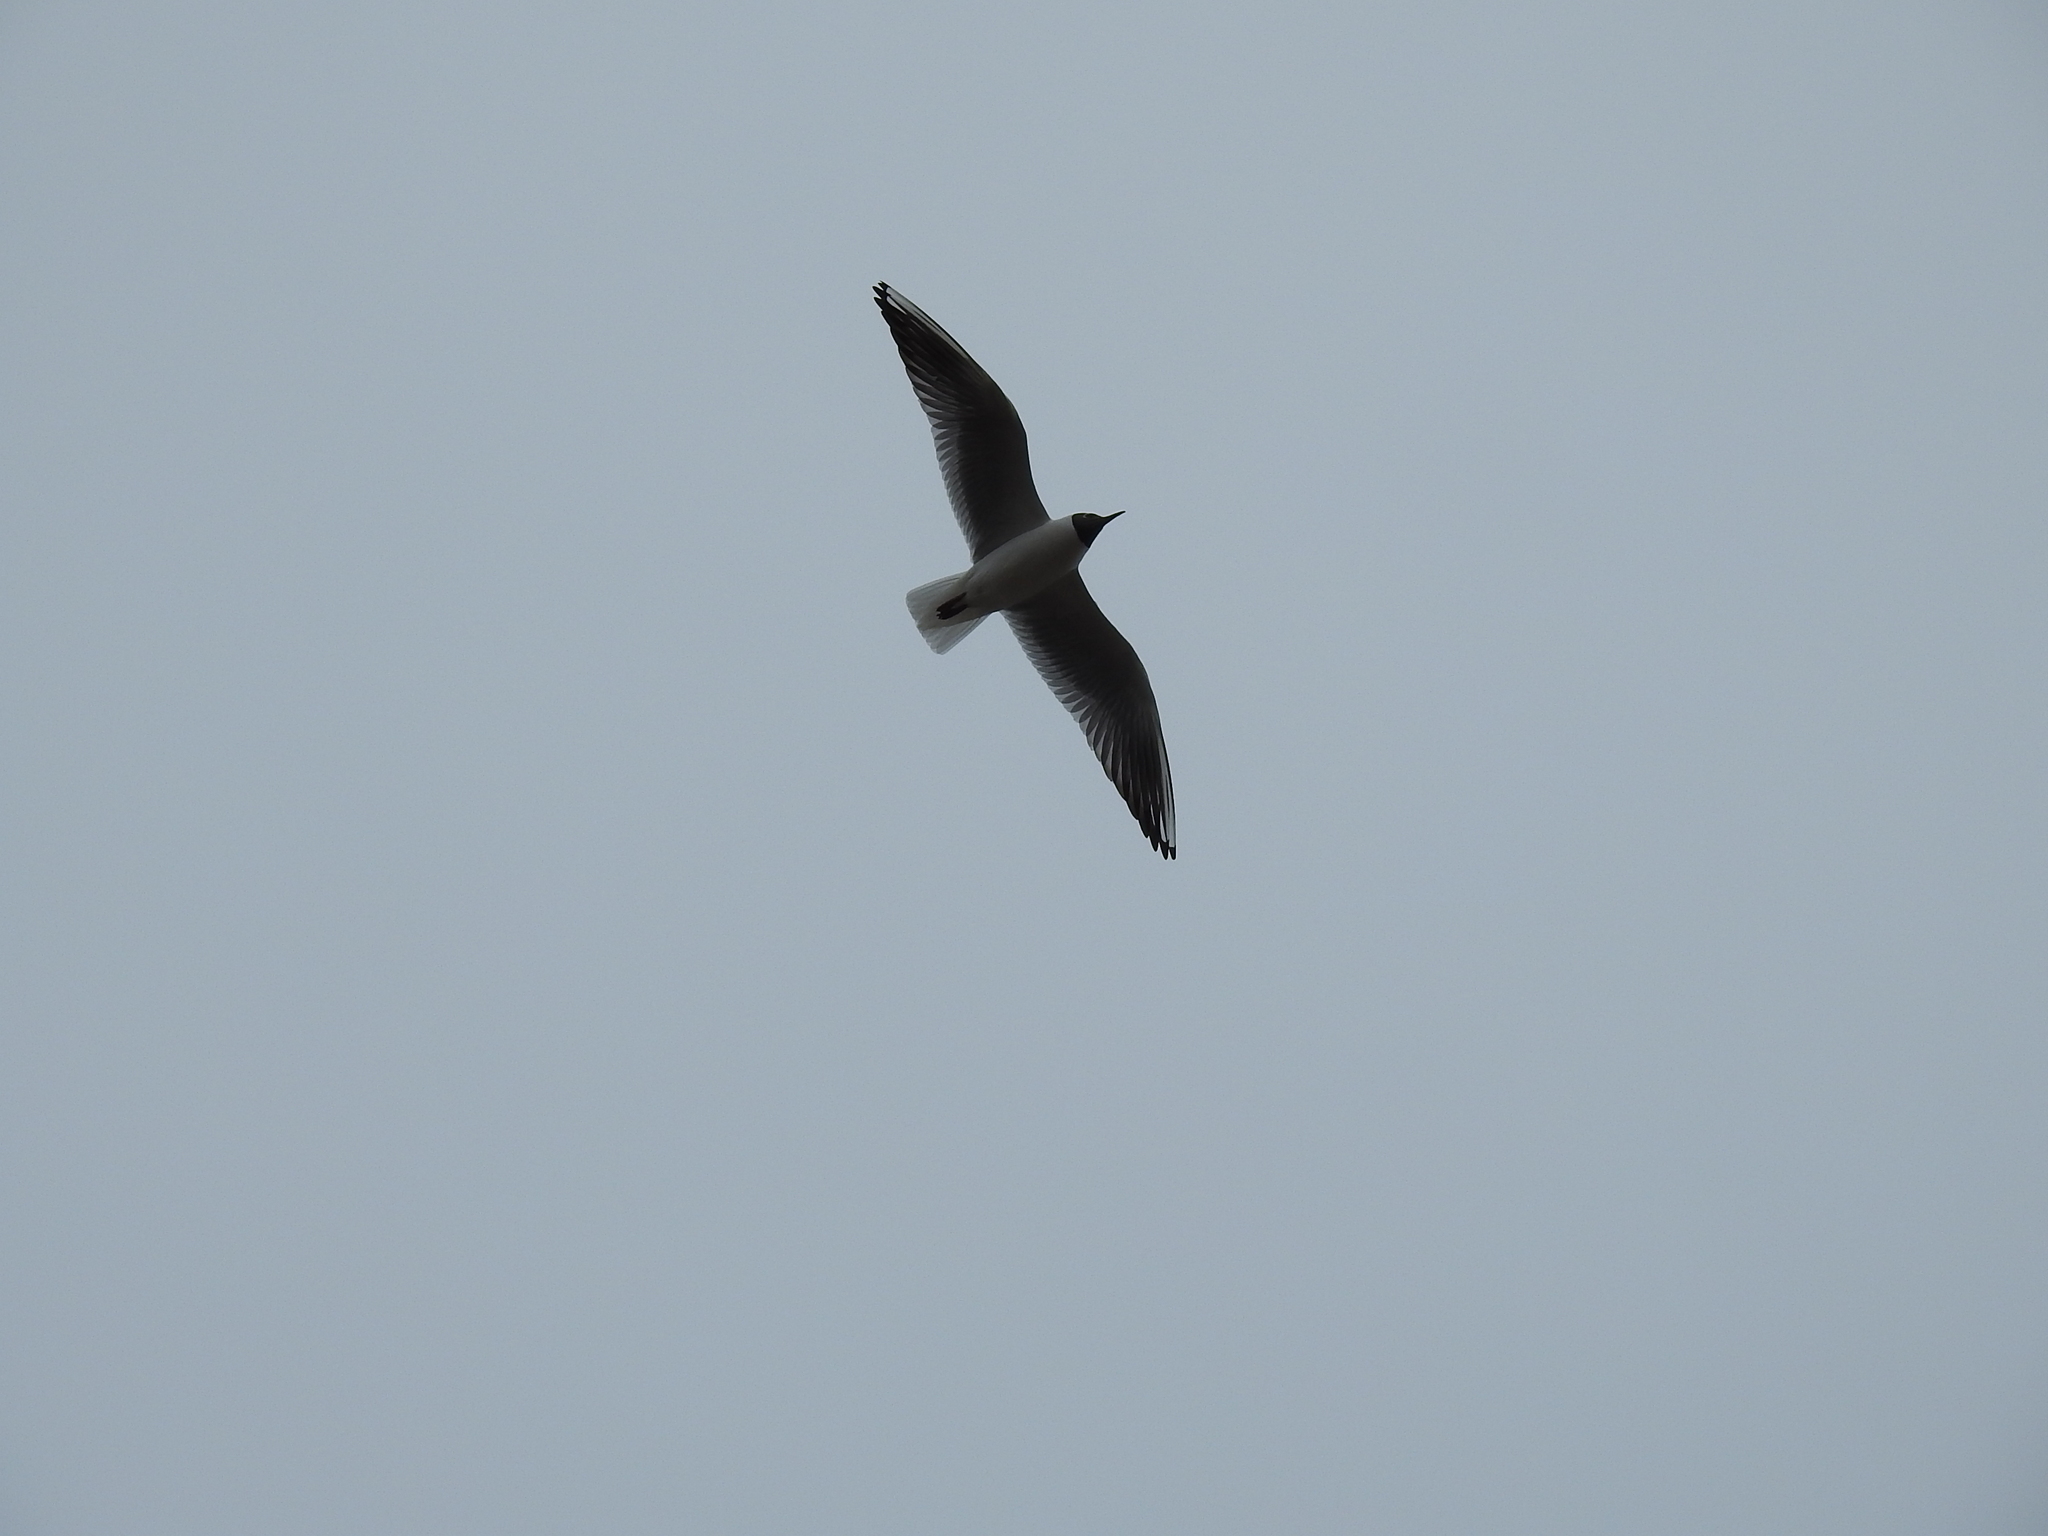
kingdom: Animalia
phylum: Chordata
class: Aves
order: Charadriiformes
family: Laridae
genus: Chroicocephalus
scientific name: Chroicocephalus ridibundus
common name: Black-headed gull
